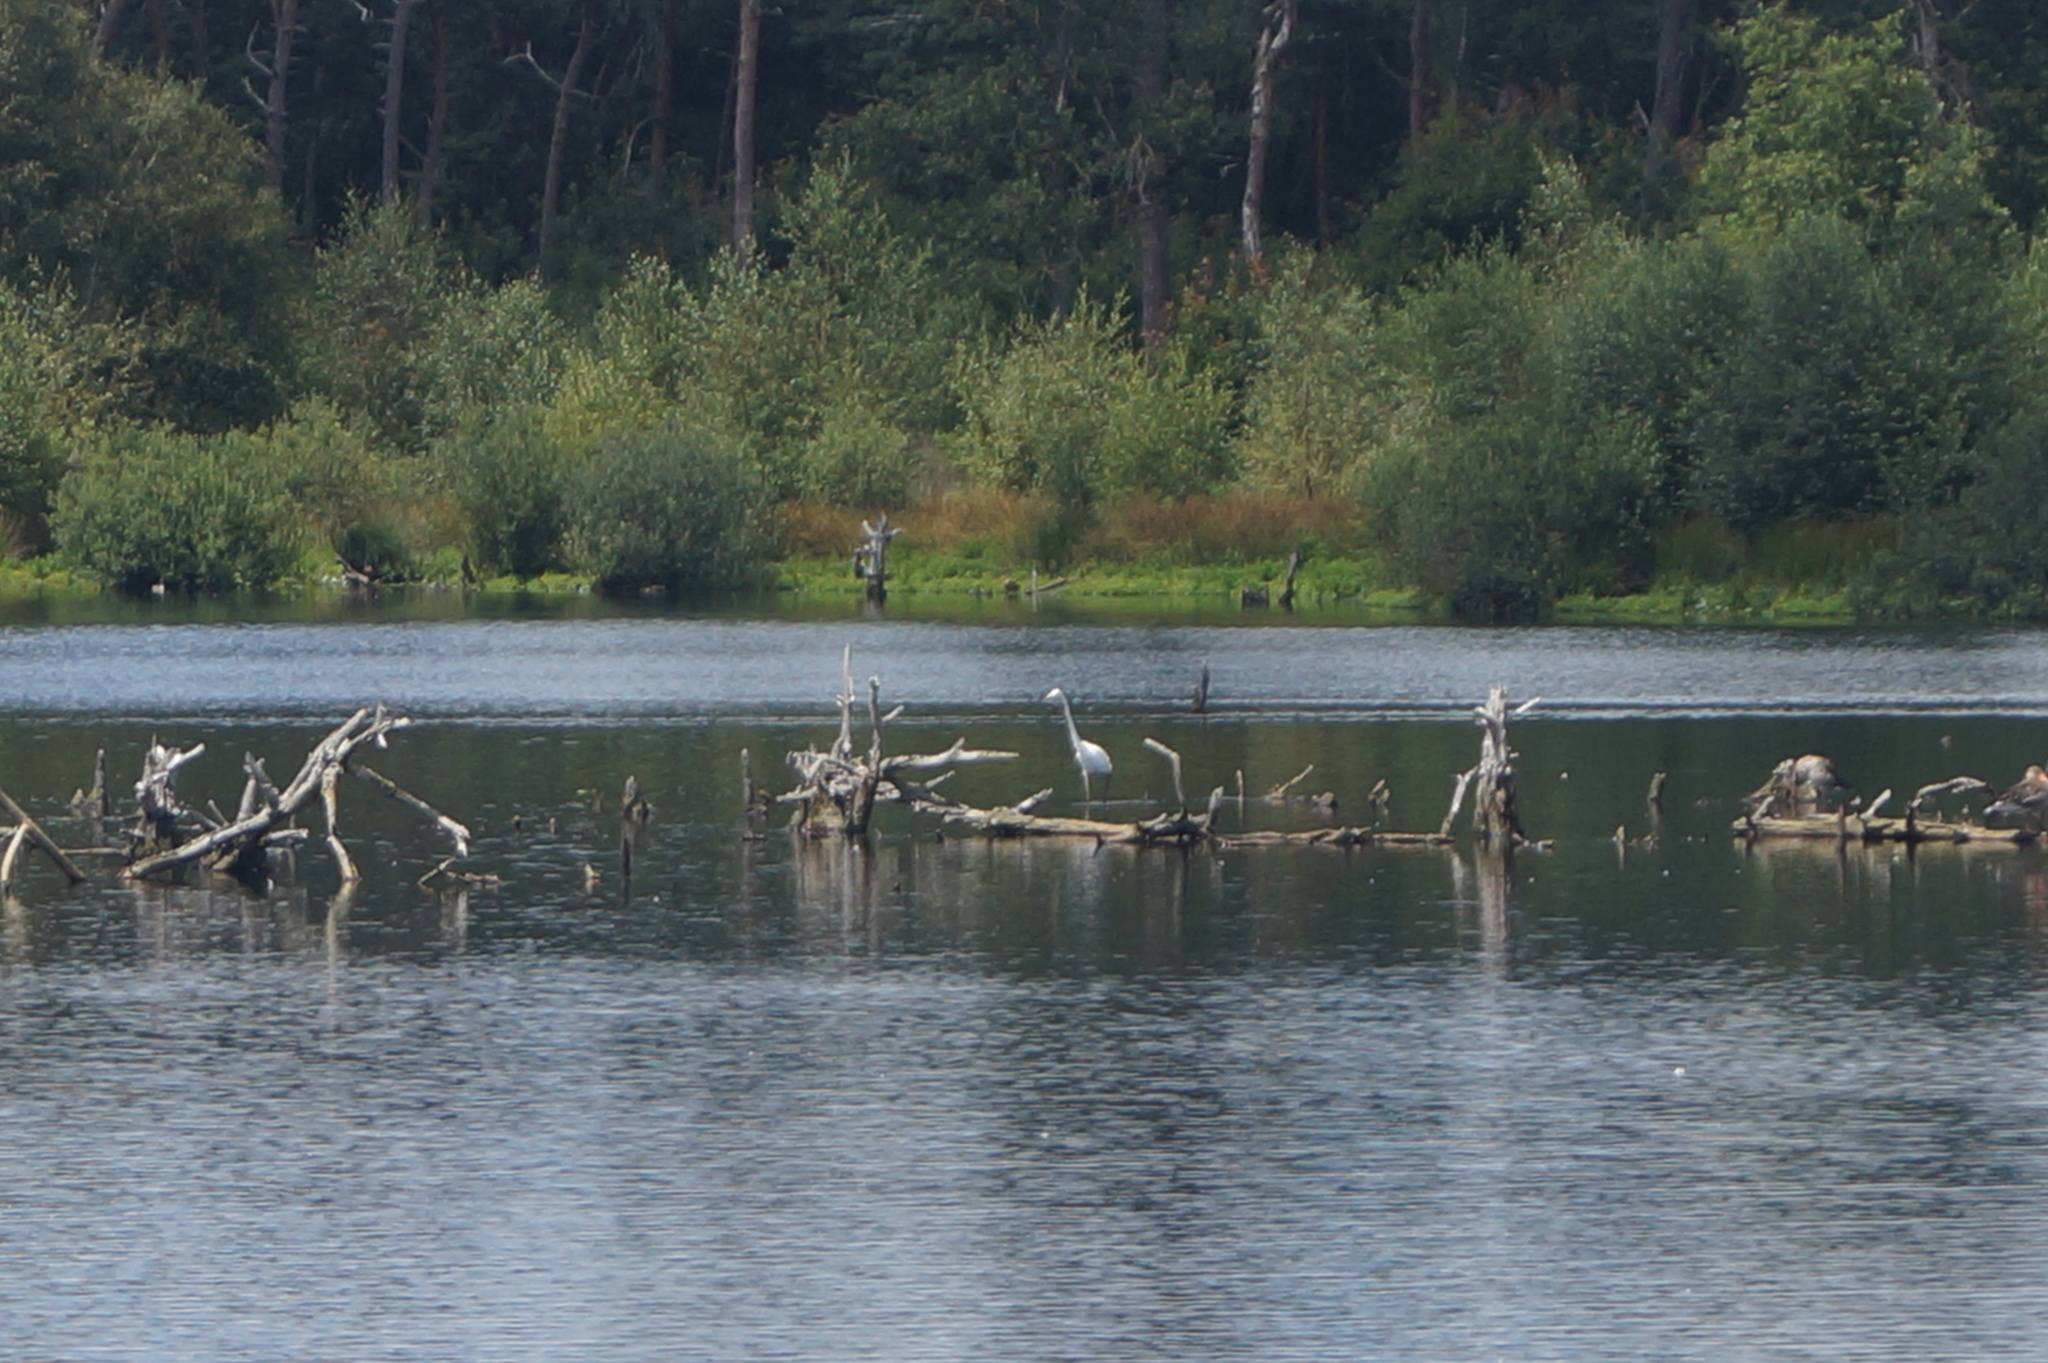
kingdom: Animalia
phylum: Chordata
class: Aves
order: Pelecaniformes
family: Ardeidae
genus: Ardea
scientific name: Ardea alba
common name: Great egret
